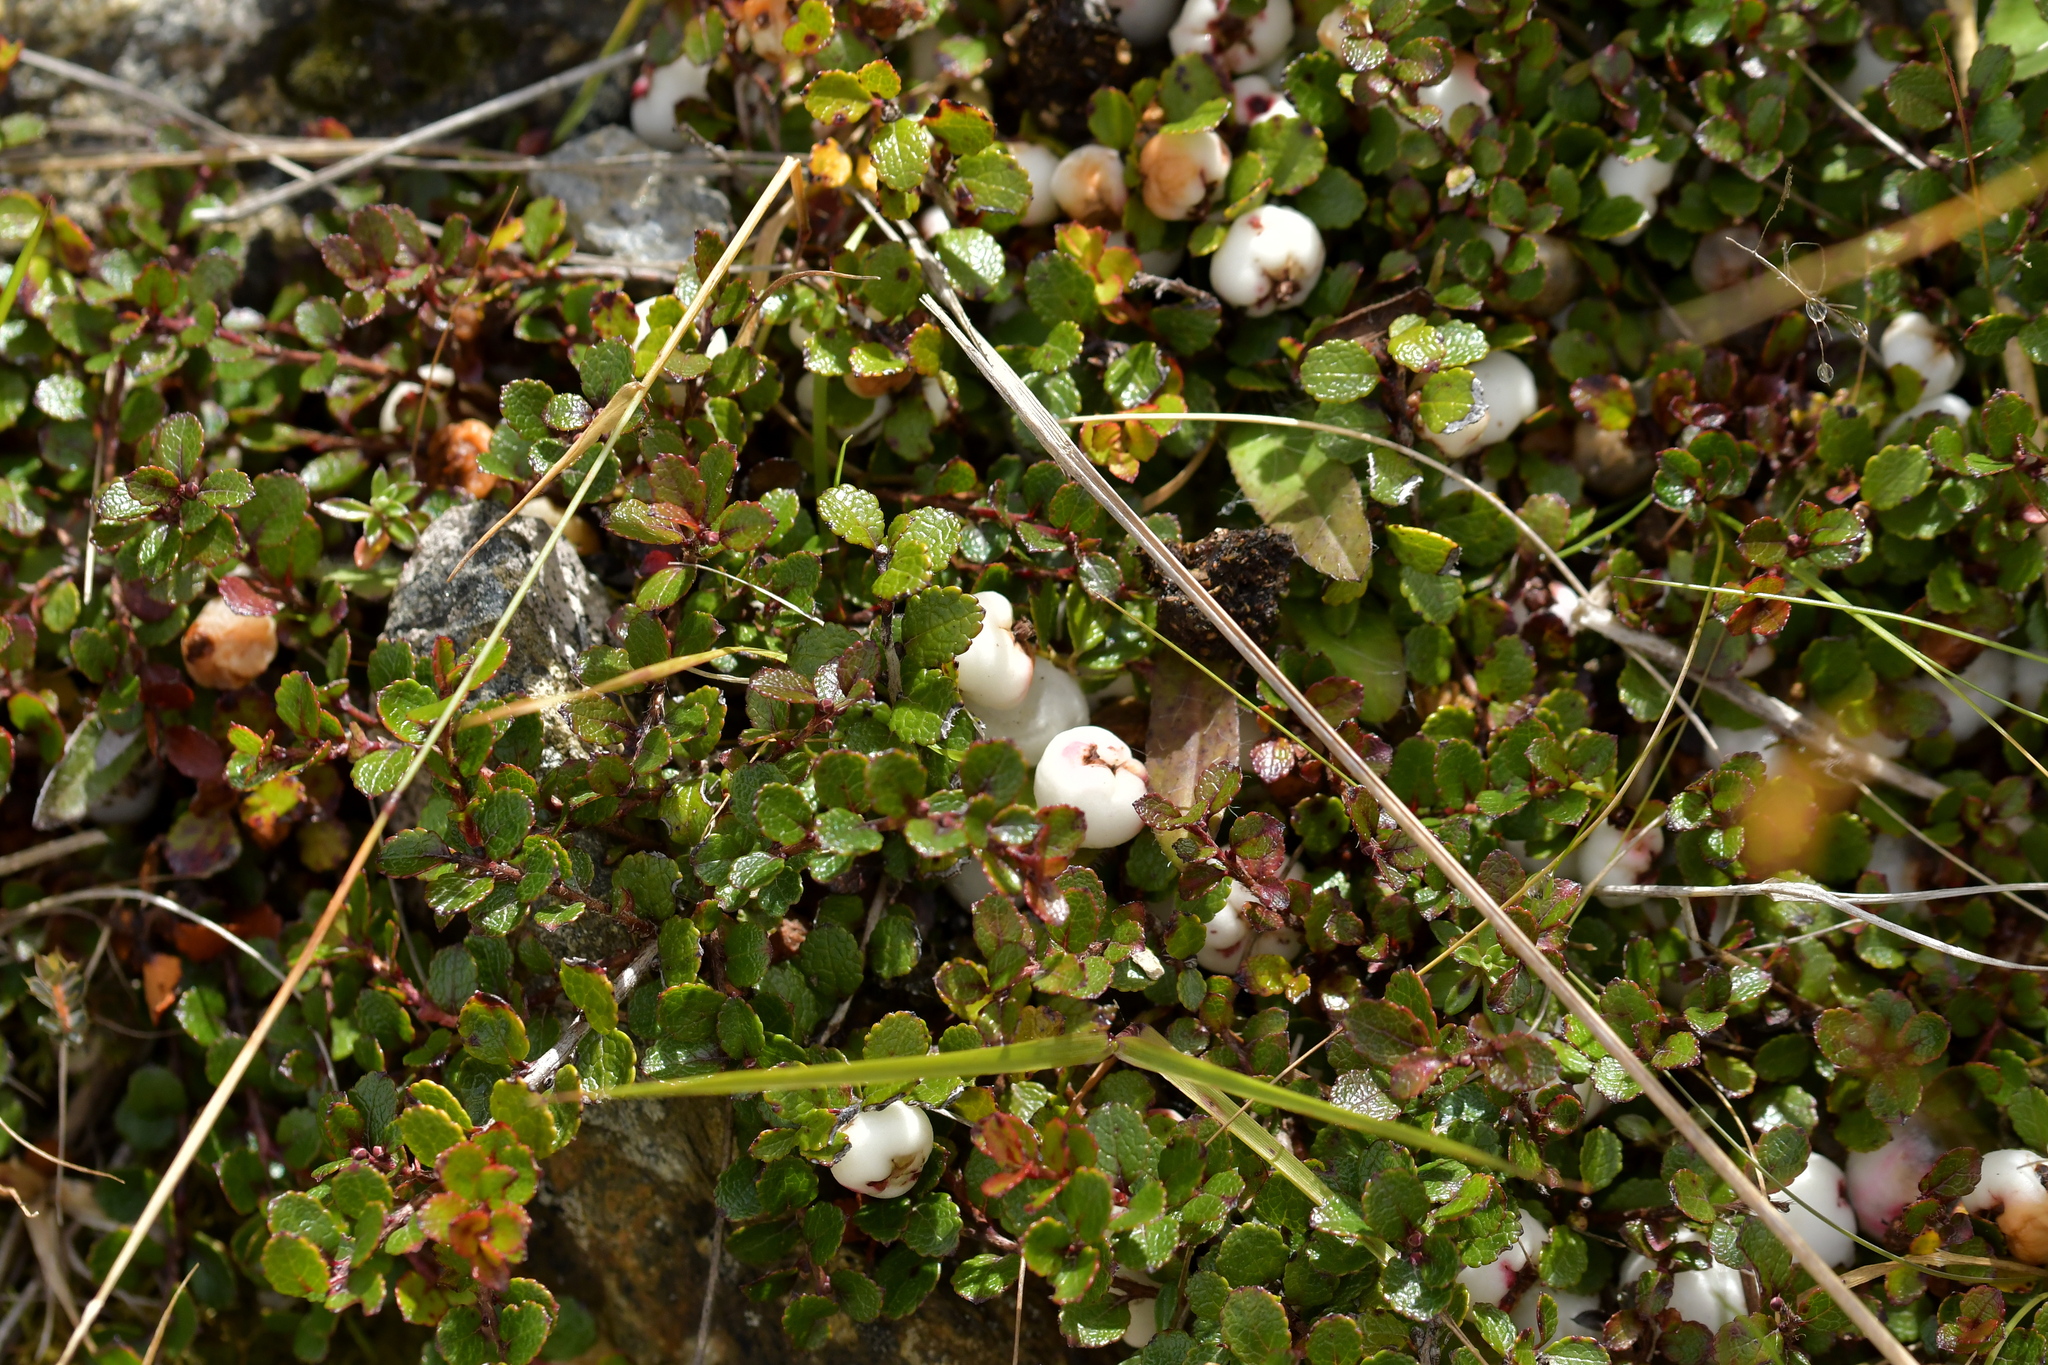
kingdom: Plantae
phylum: Tracheophyta
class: Magnoliopsida
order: Ericales
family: Ericaceae
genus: Gaultheria
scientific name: Gaultheria depressa
